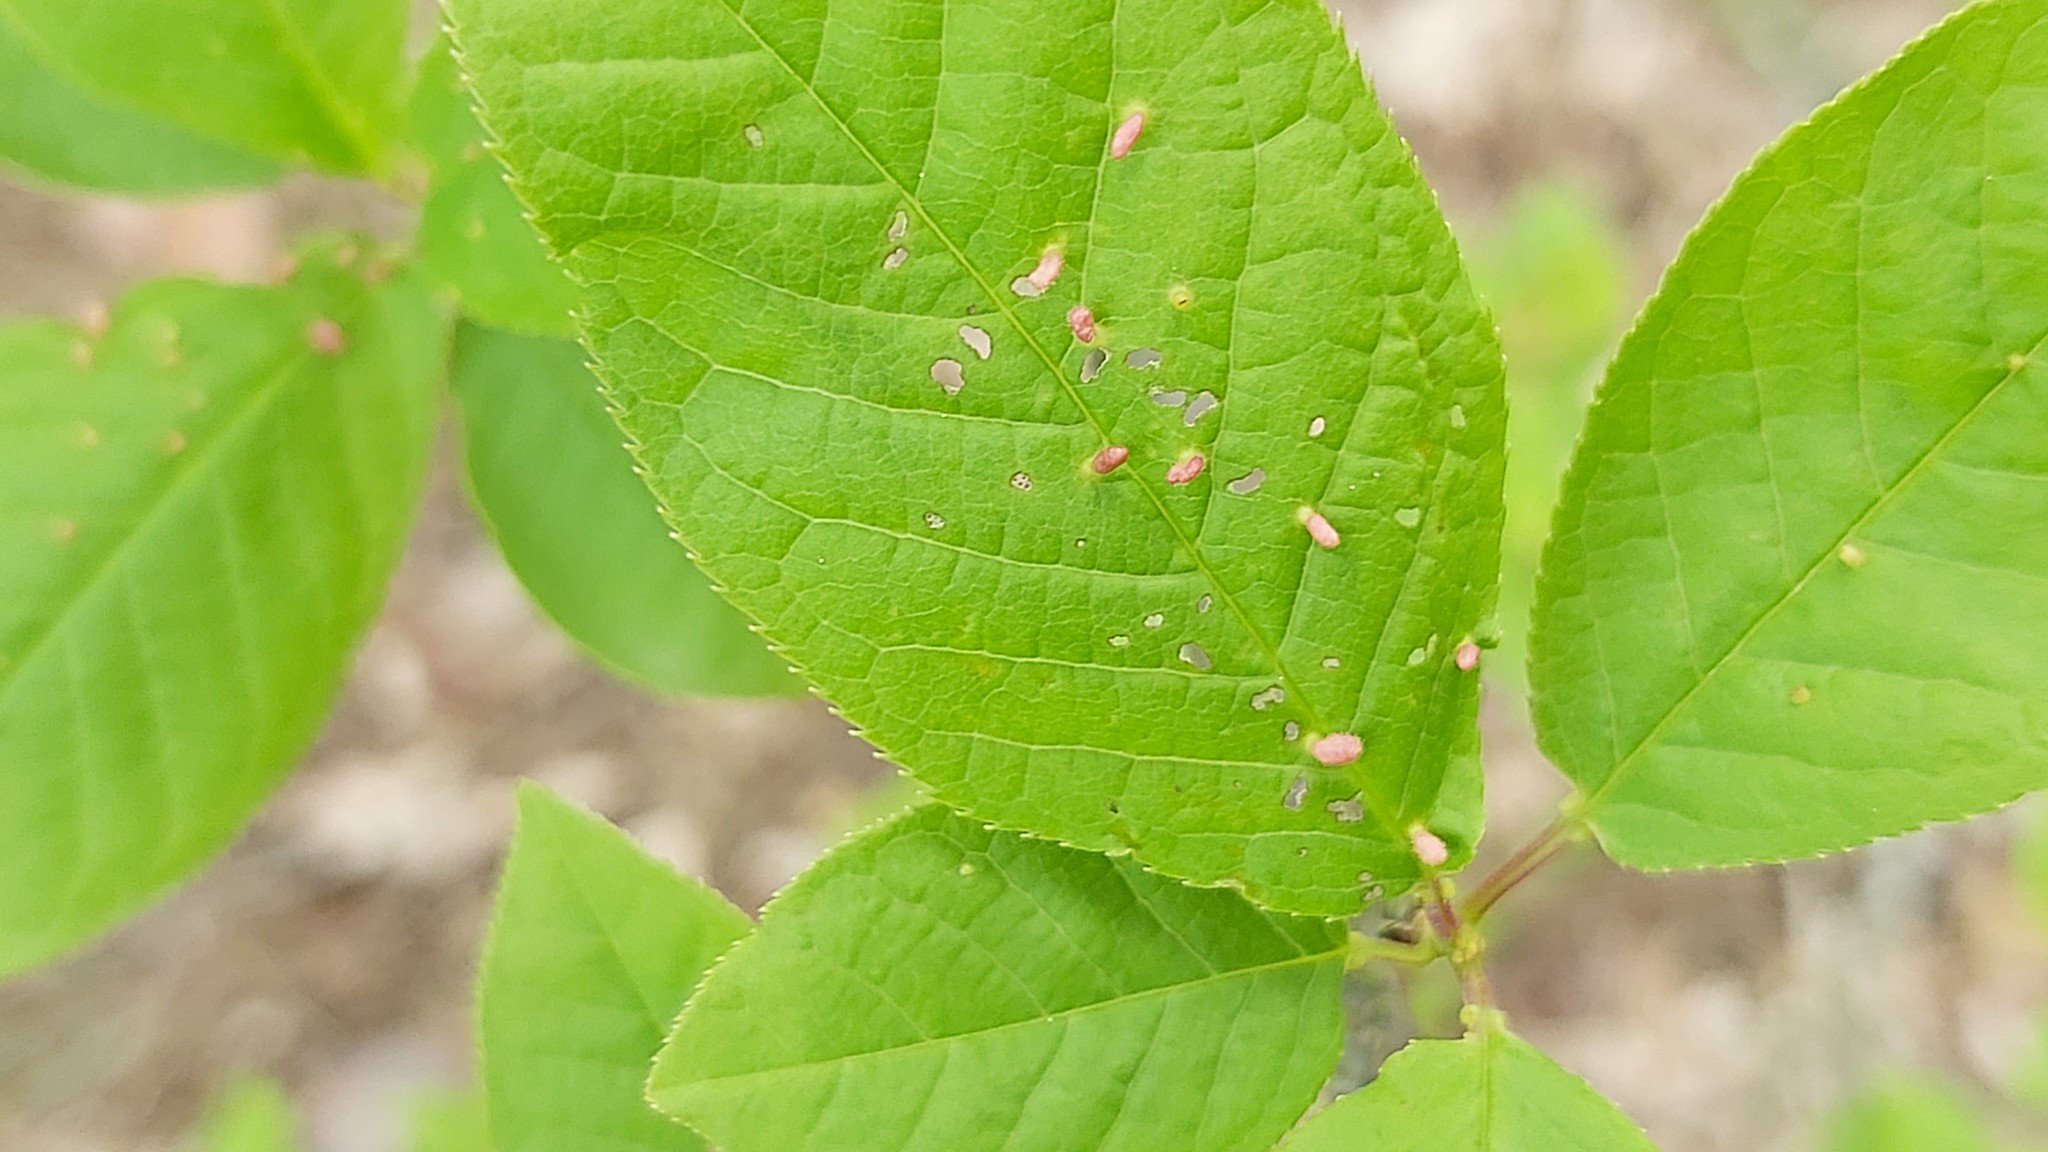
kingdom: Animalia
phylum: Arthropoda
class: Arachnida
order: Trombidiformes
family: Eriophyidae
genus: Phyllocoptes
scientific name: Phyllocoptes eupadi
